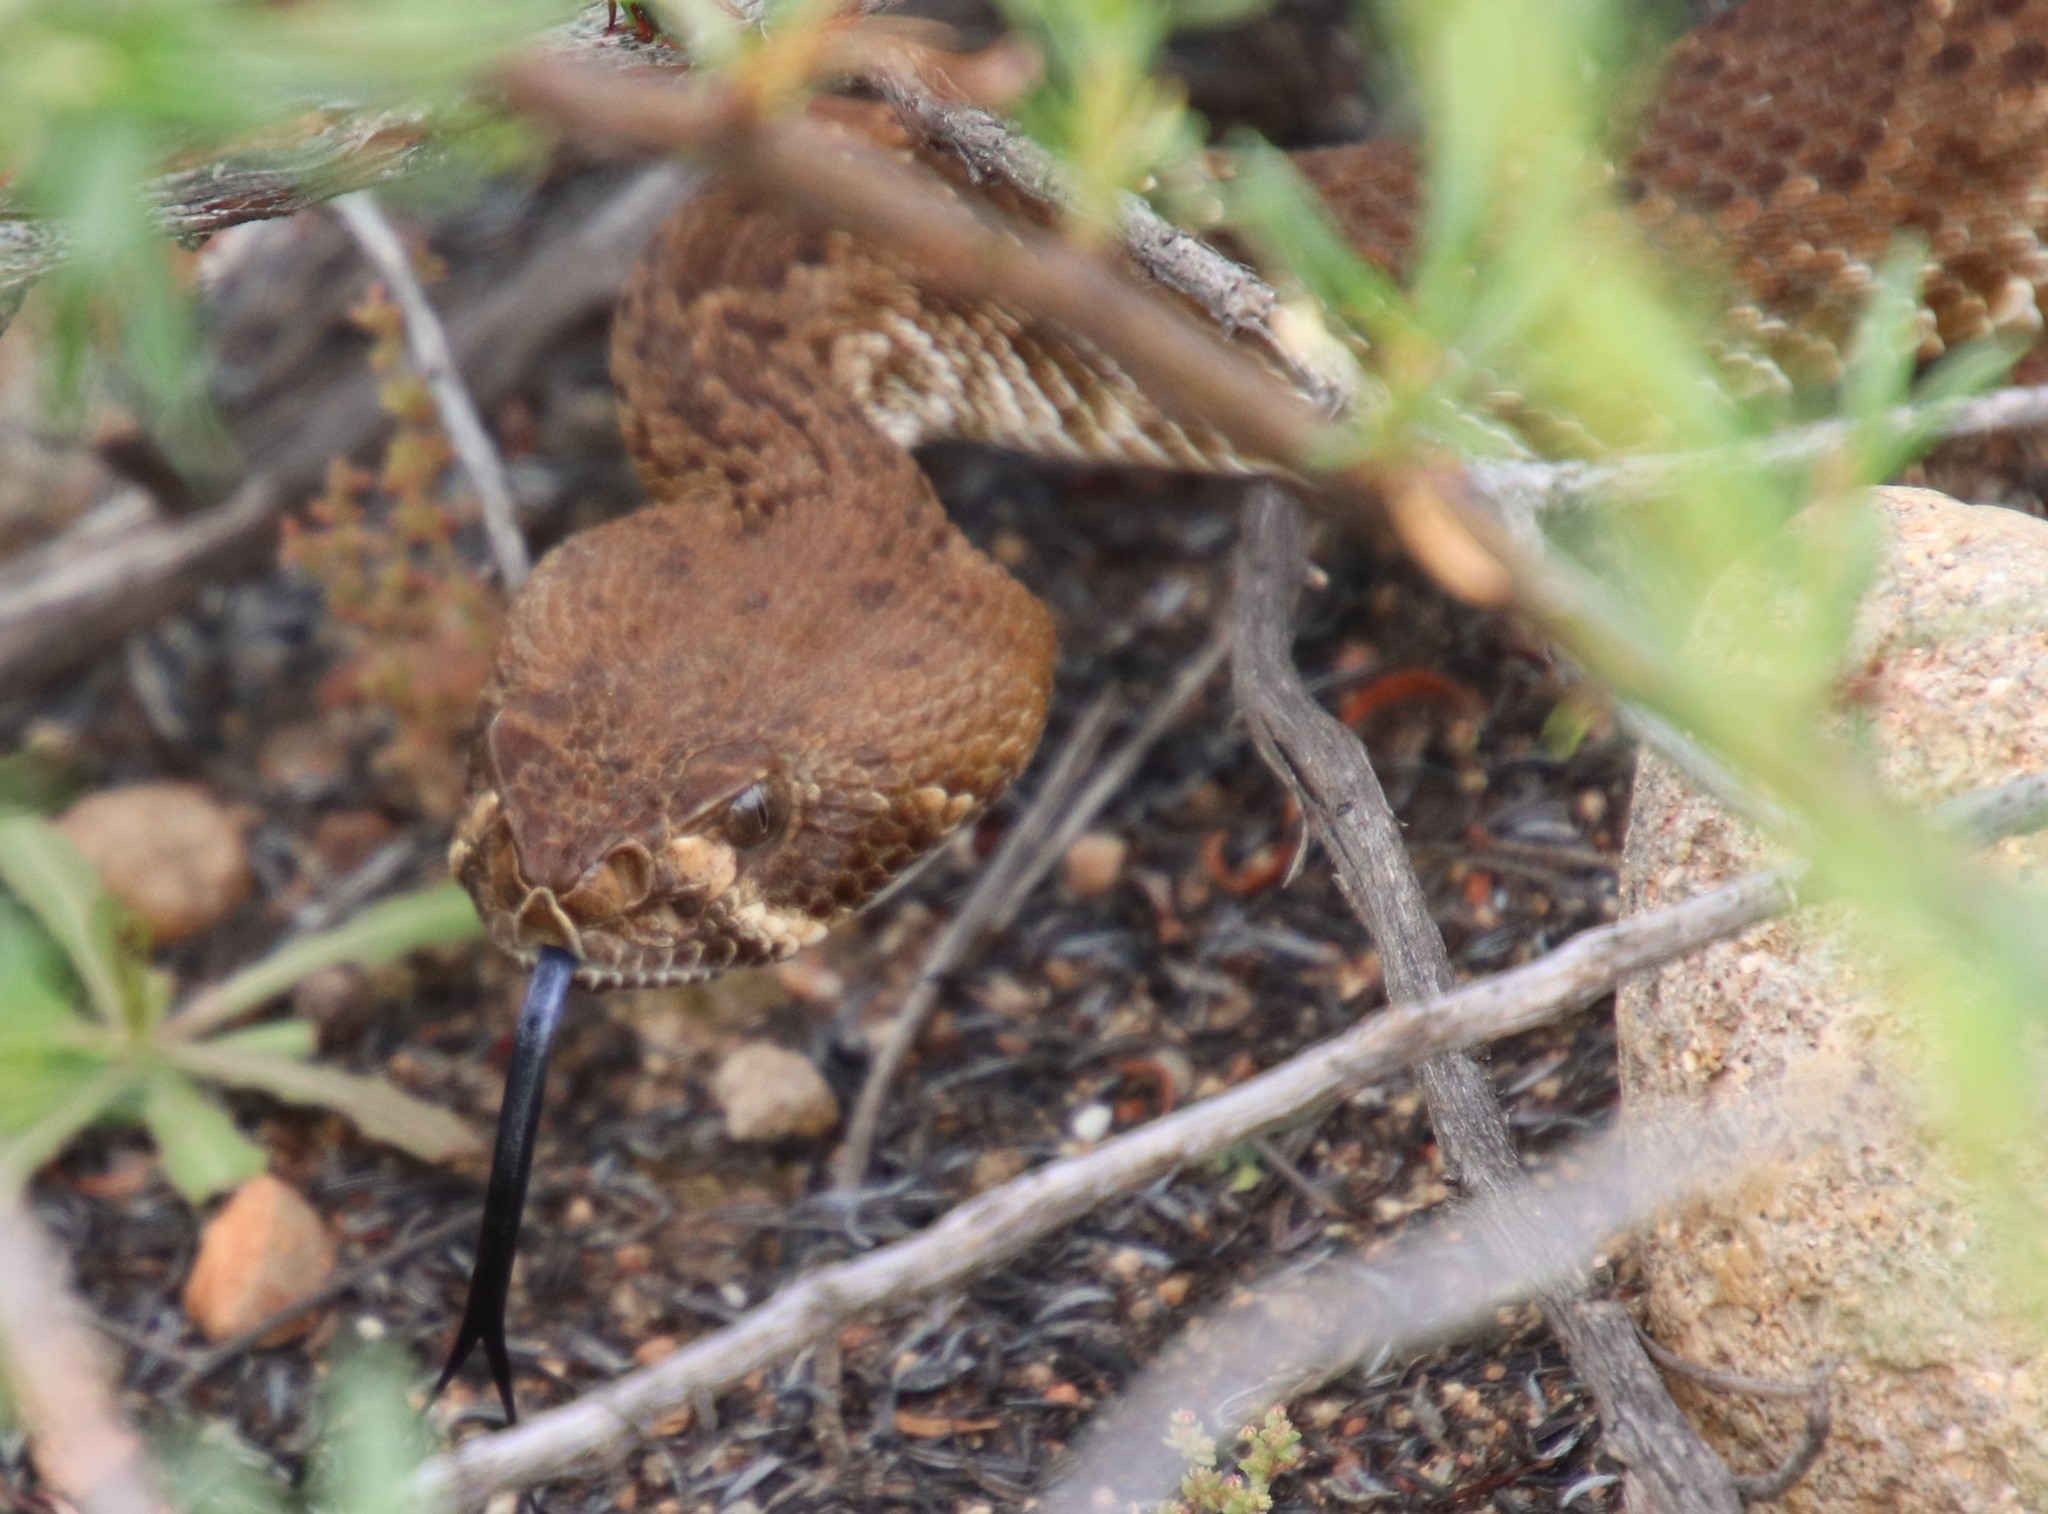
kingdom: Animalia
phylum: Chordata
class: Squamata
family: Viperidae
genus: Crotalus
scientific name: Crotalus ruber
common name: Red diamond rattlesnake
